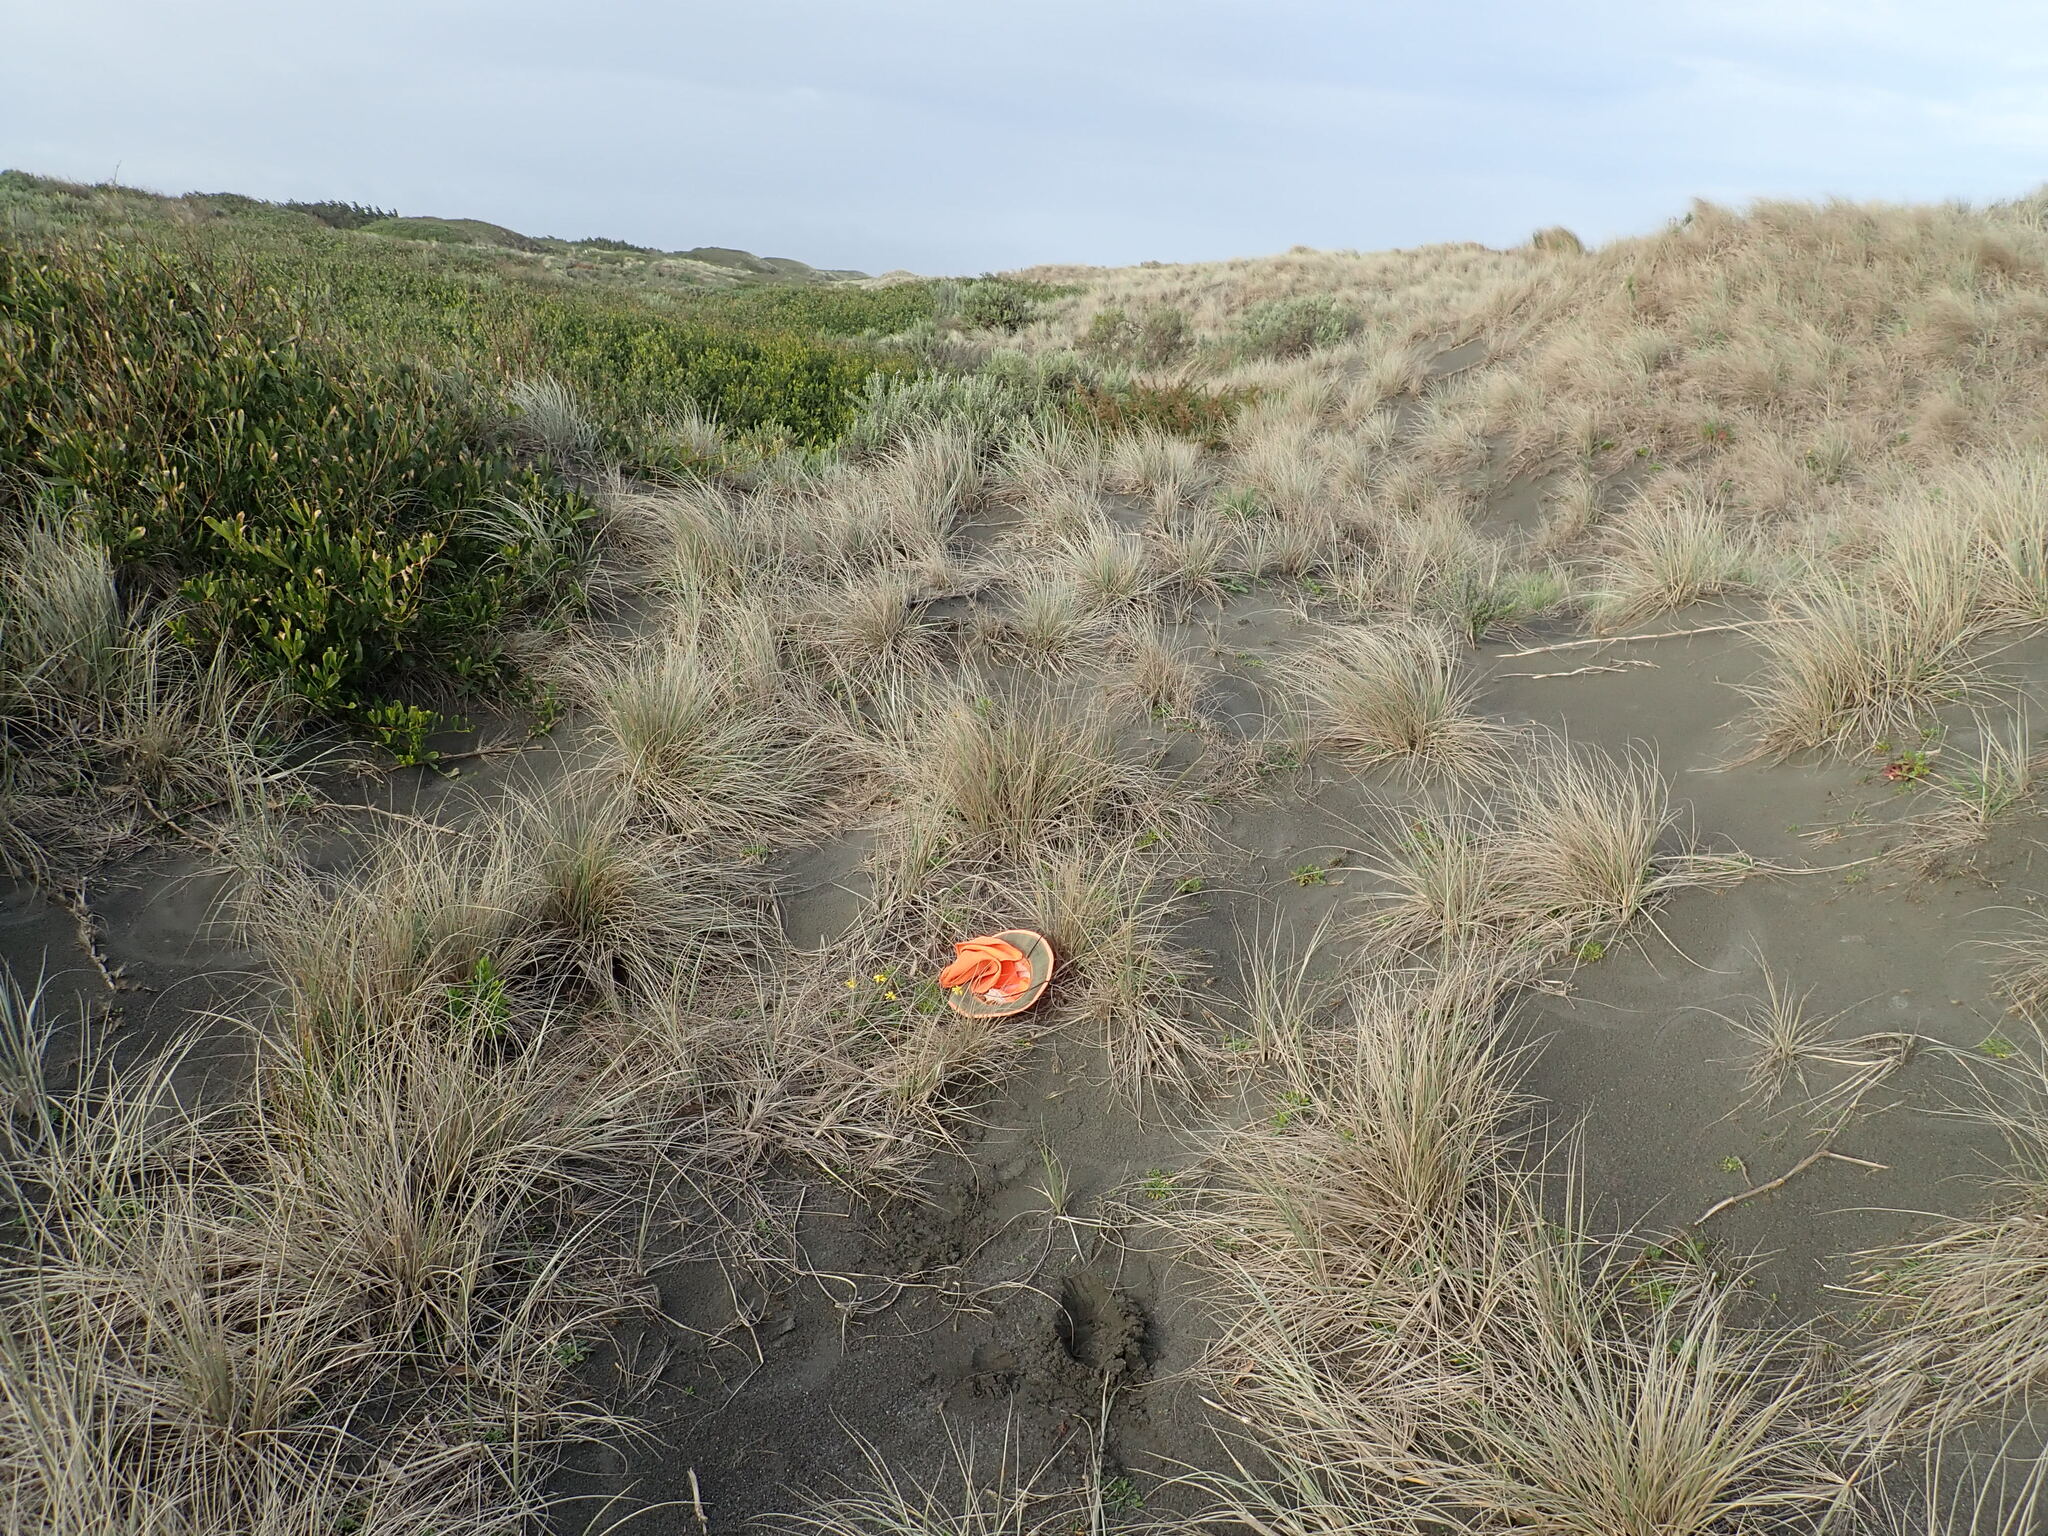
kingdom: Plantae
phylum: Tracheophyta
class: Magnoliopsida
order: Asterales
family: Asteraceae
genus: Senecio
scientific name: Senecio skirrhodon
